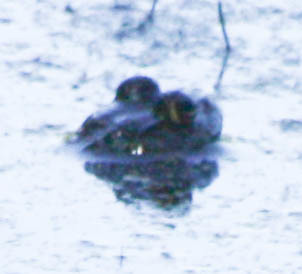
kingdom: Animalia
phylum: Chordata
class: Amphibia
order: Anura
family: Ranidae
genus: Lithobates
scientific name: Lithobates catesbeianus
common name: American bullfrog
